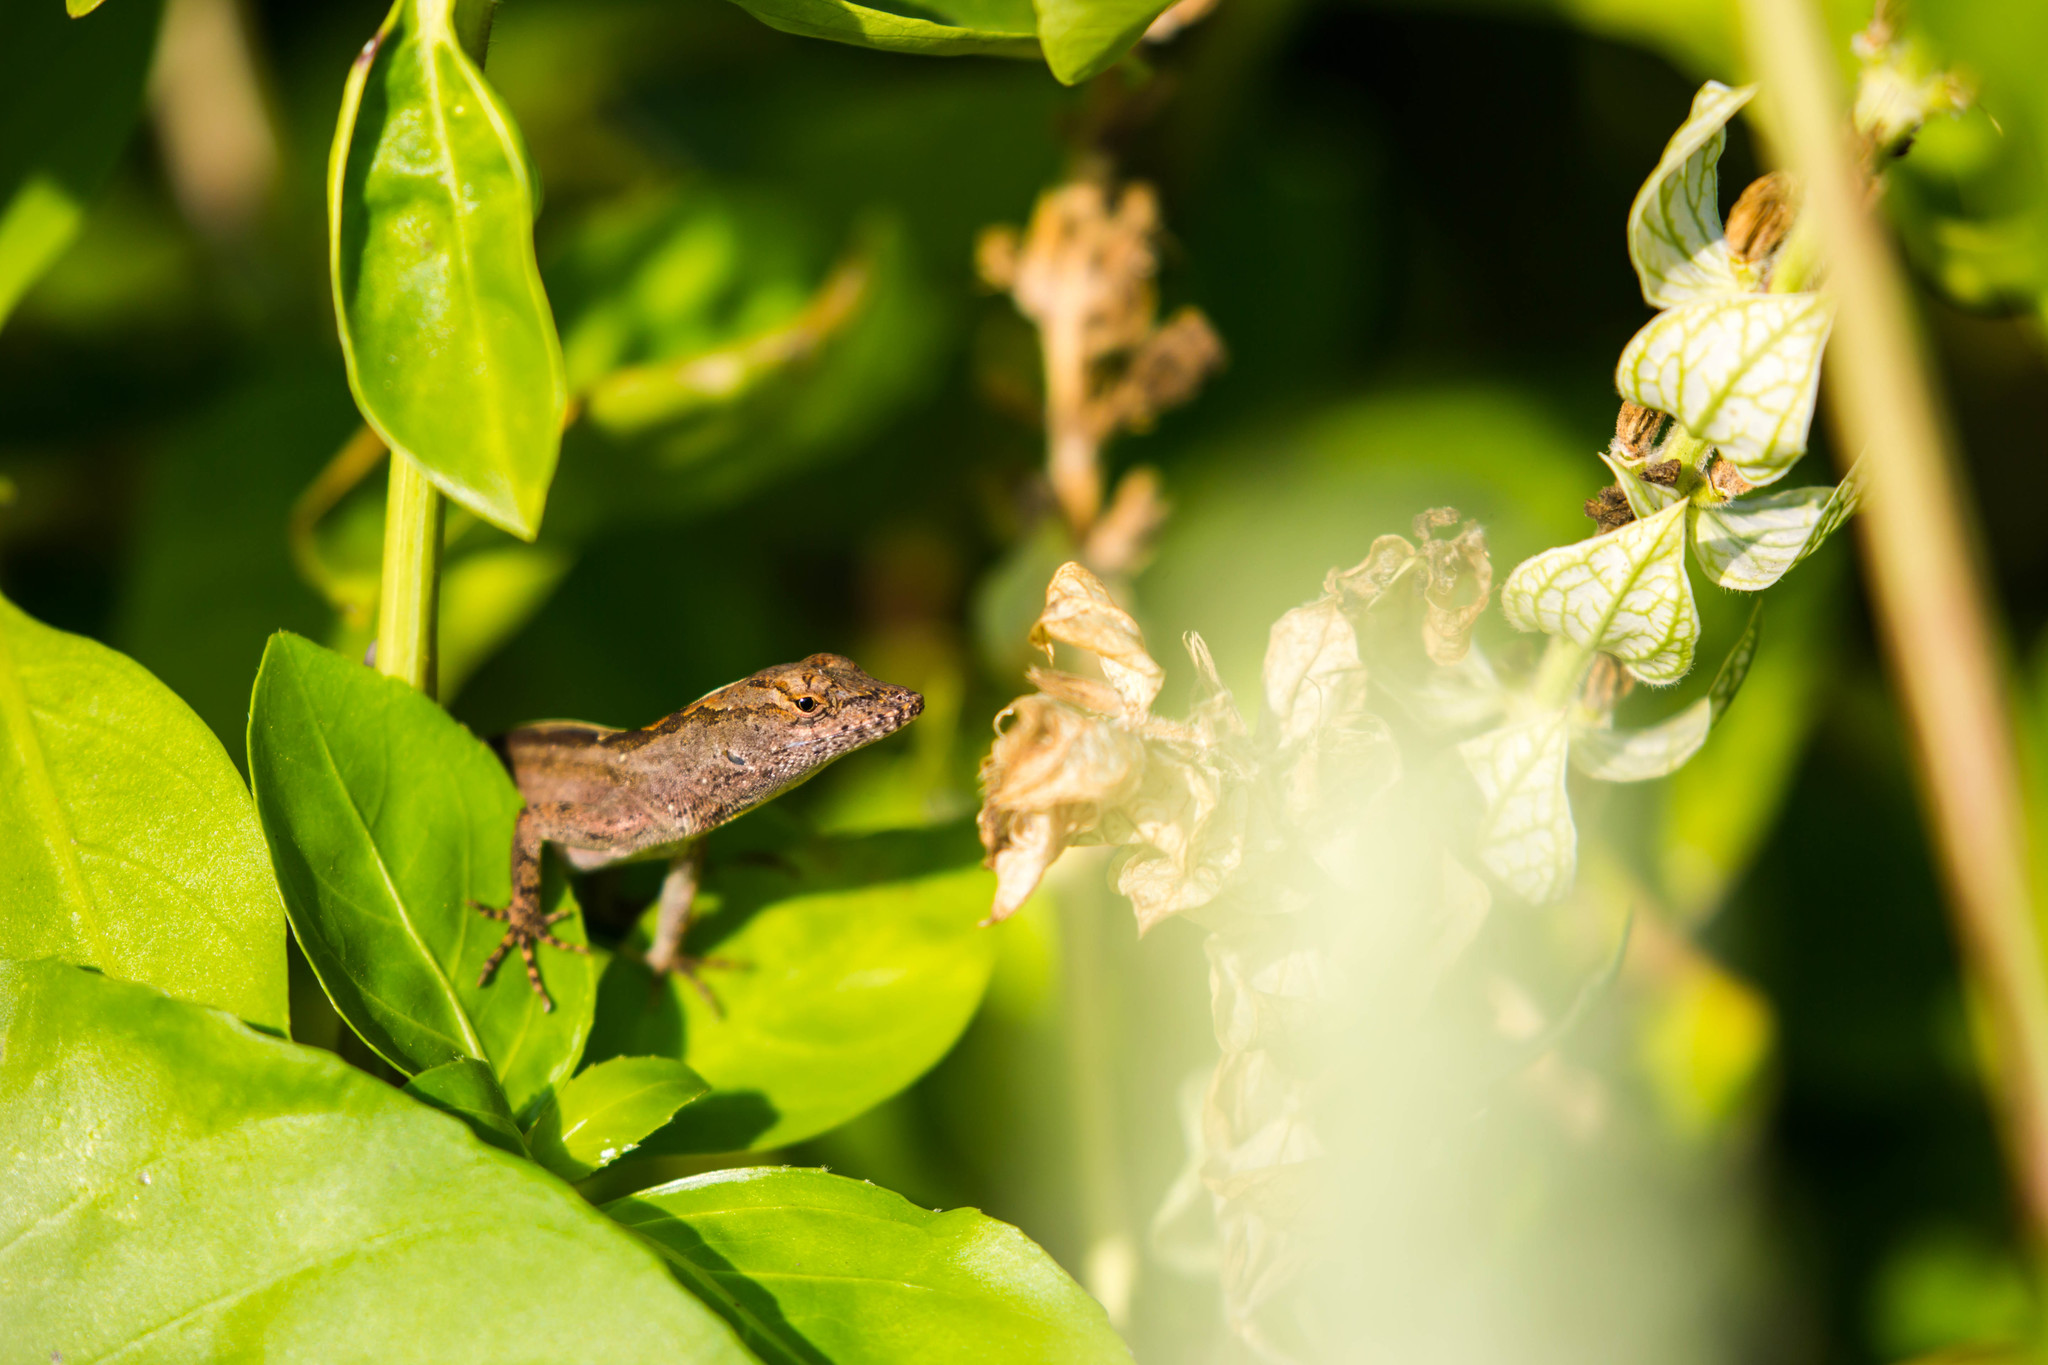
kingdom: Animalia
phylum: Chordata
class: Squamata
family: Dactyloidae
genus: Anolis
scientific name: Anolis sagrei
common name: Brown anole
